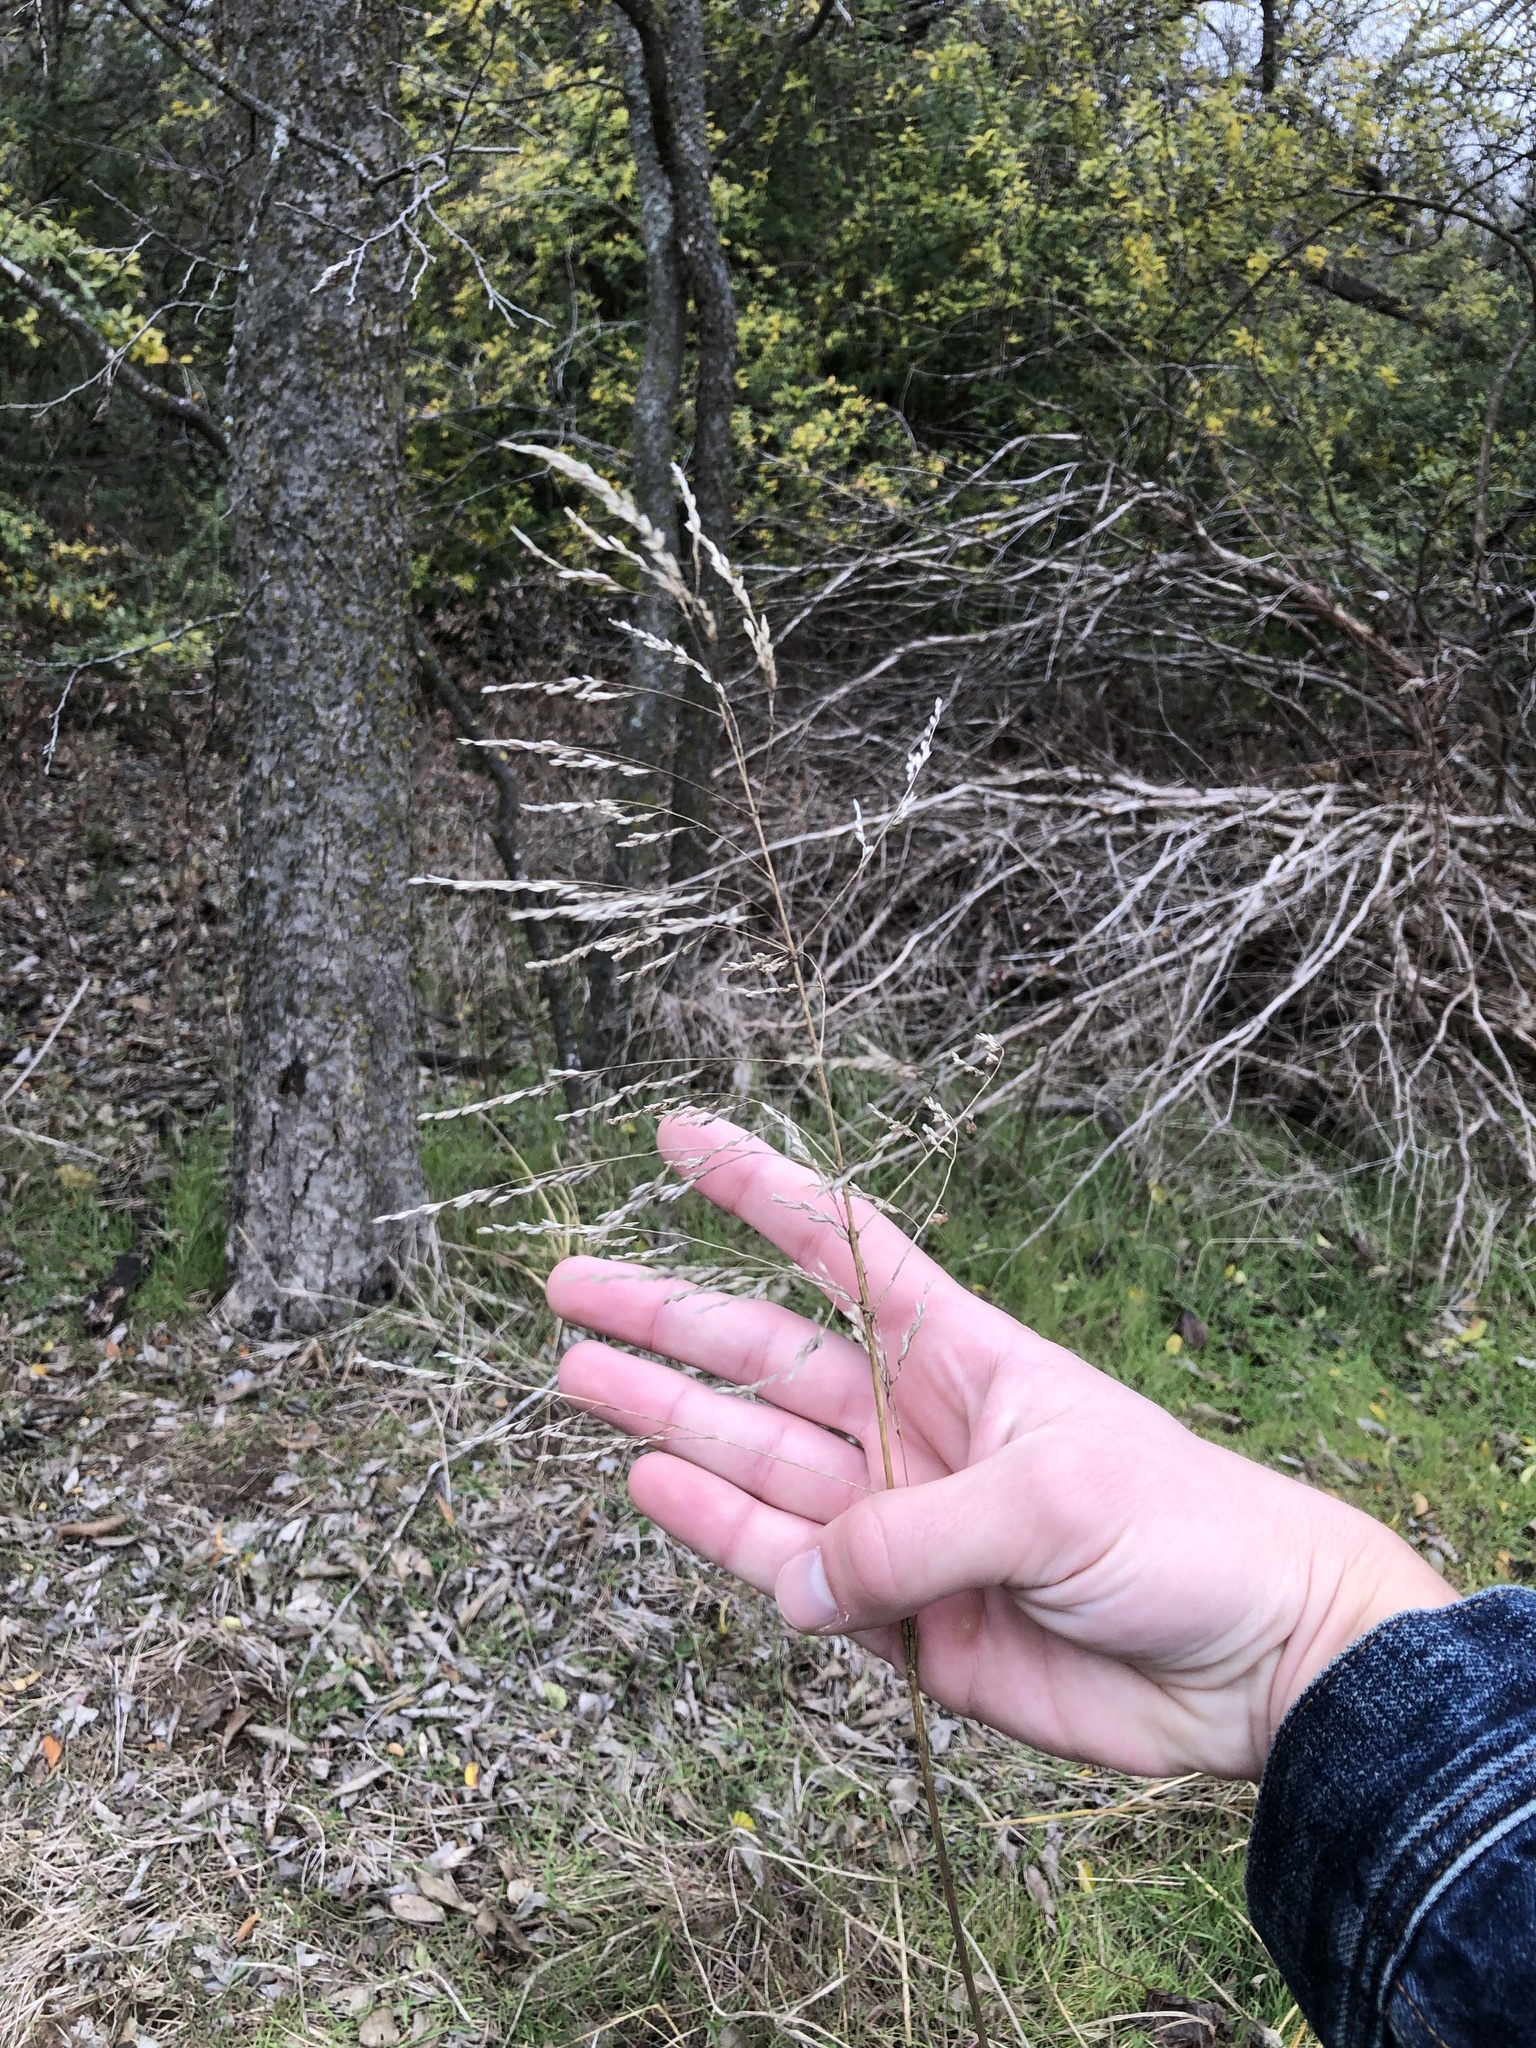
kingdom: Plantae
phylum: Tracheophyta
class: Liliopsida
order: Poales
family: Poaceae
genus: Tridens
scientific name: Tridens flavus
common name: Purpletop
